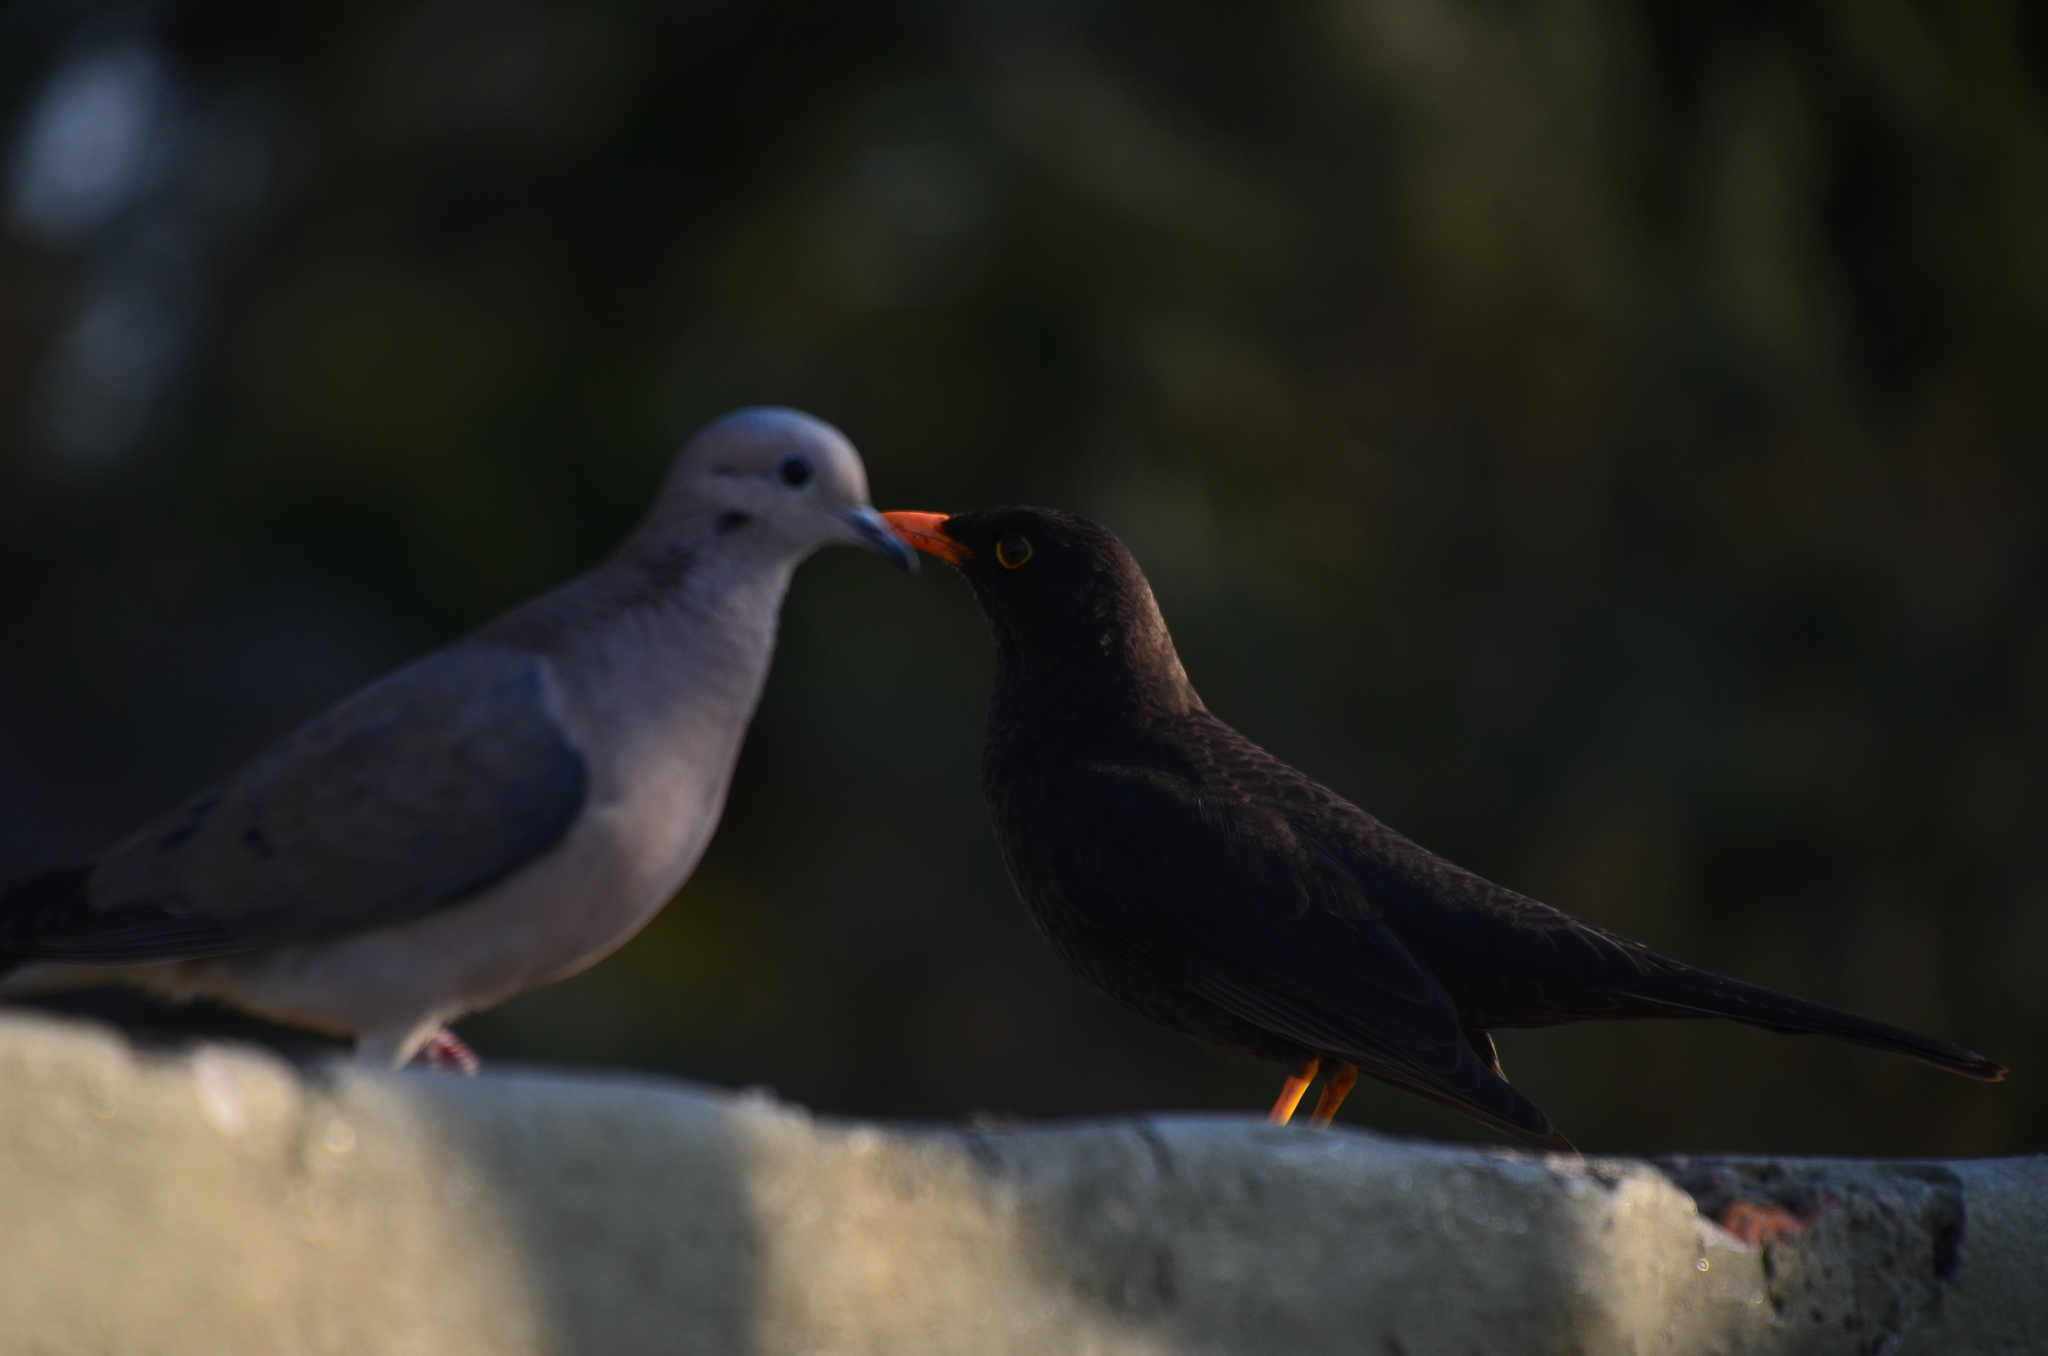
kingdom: Animalia
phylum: Chordata
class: Aves
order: Columbiformes
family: Columbidae
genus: Zenaida
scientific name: Zenaida auriculata
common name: Eared dove
